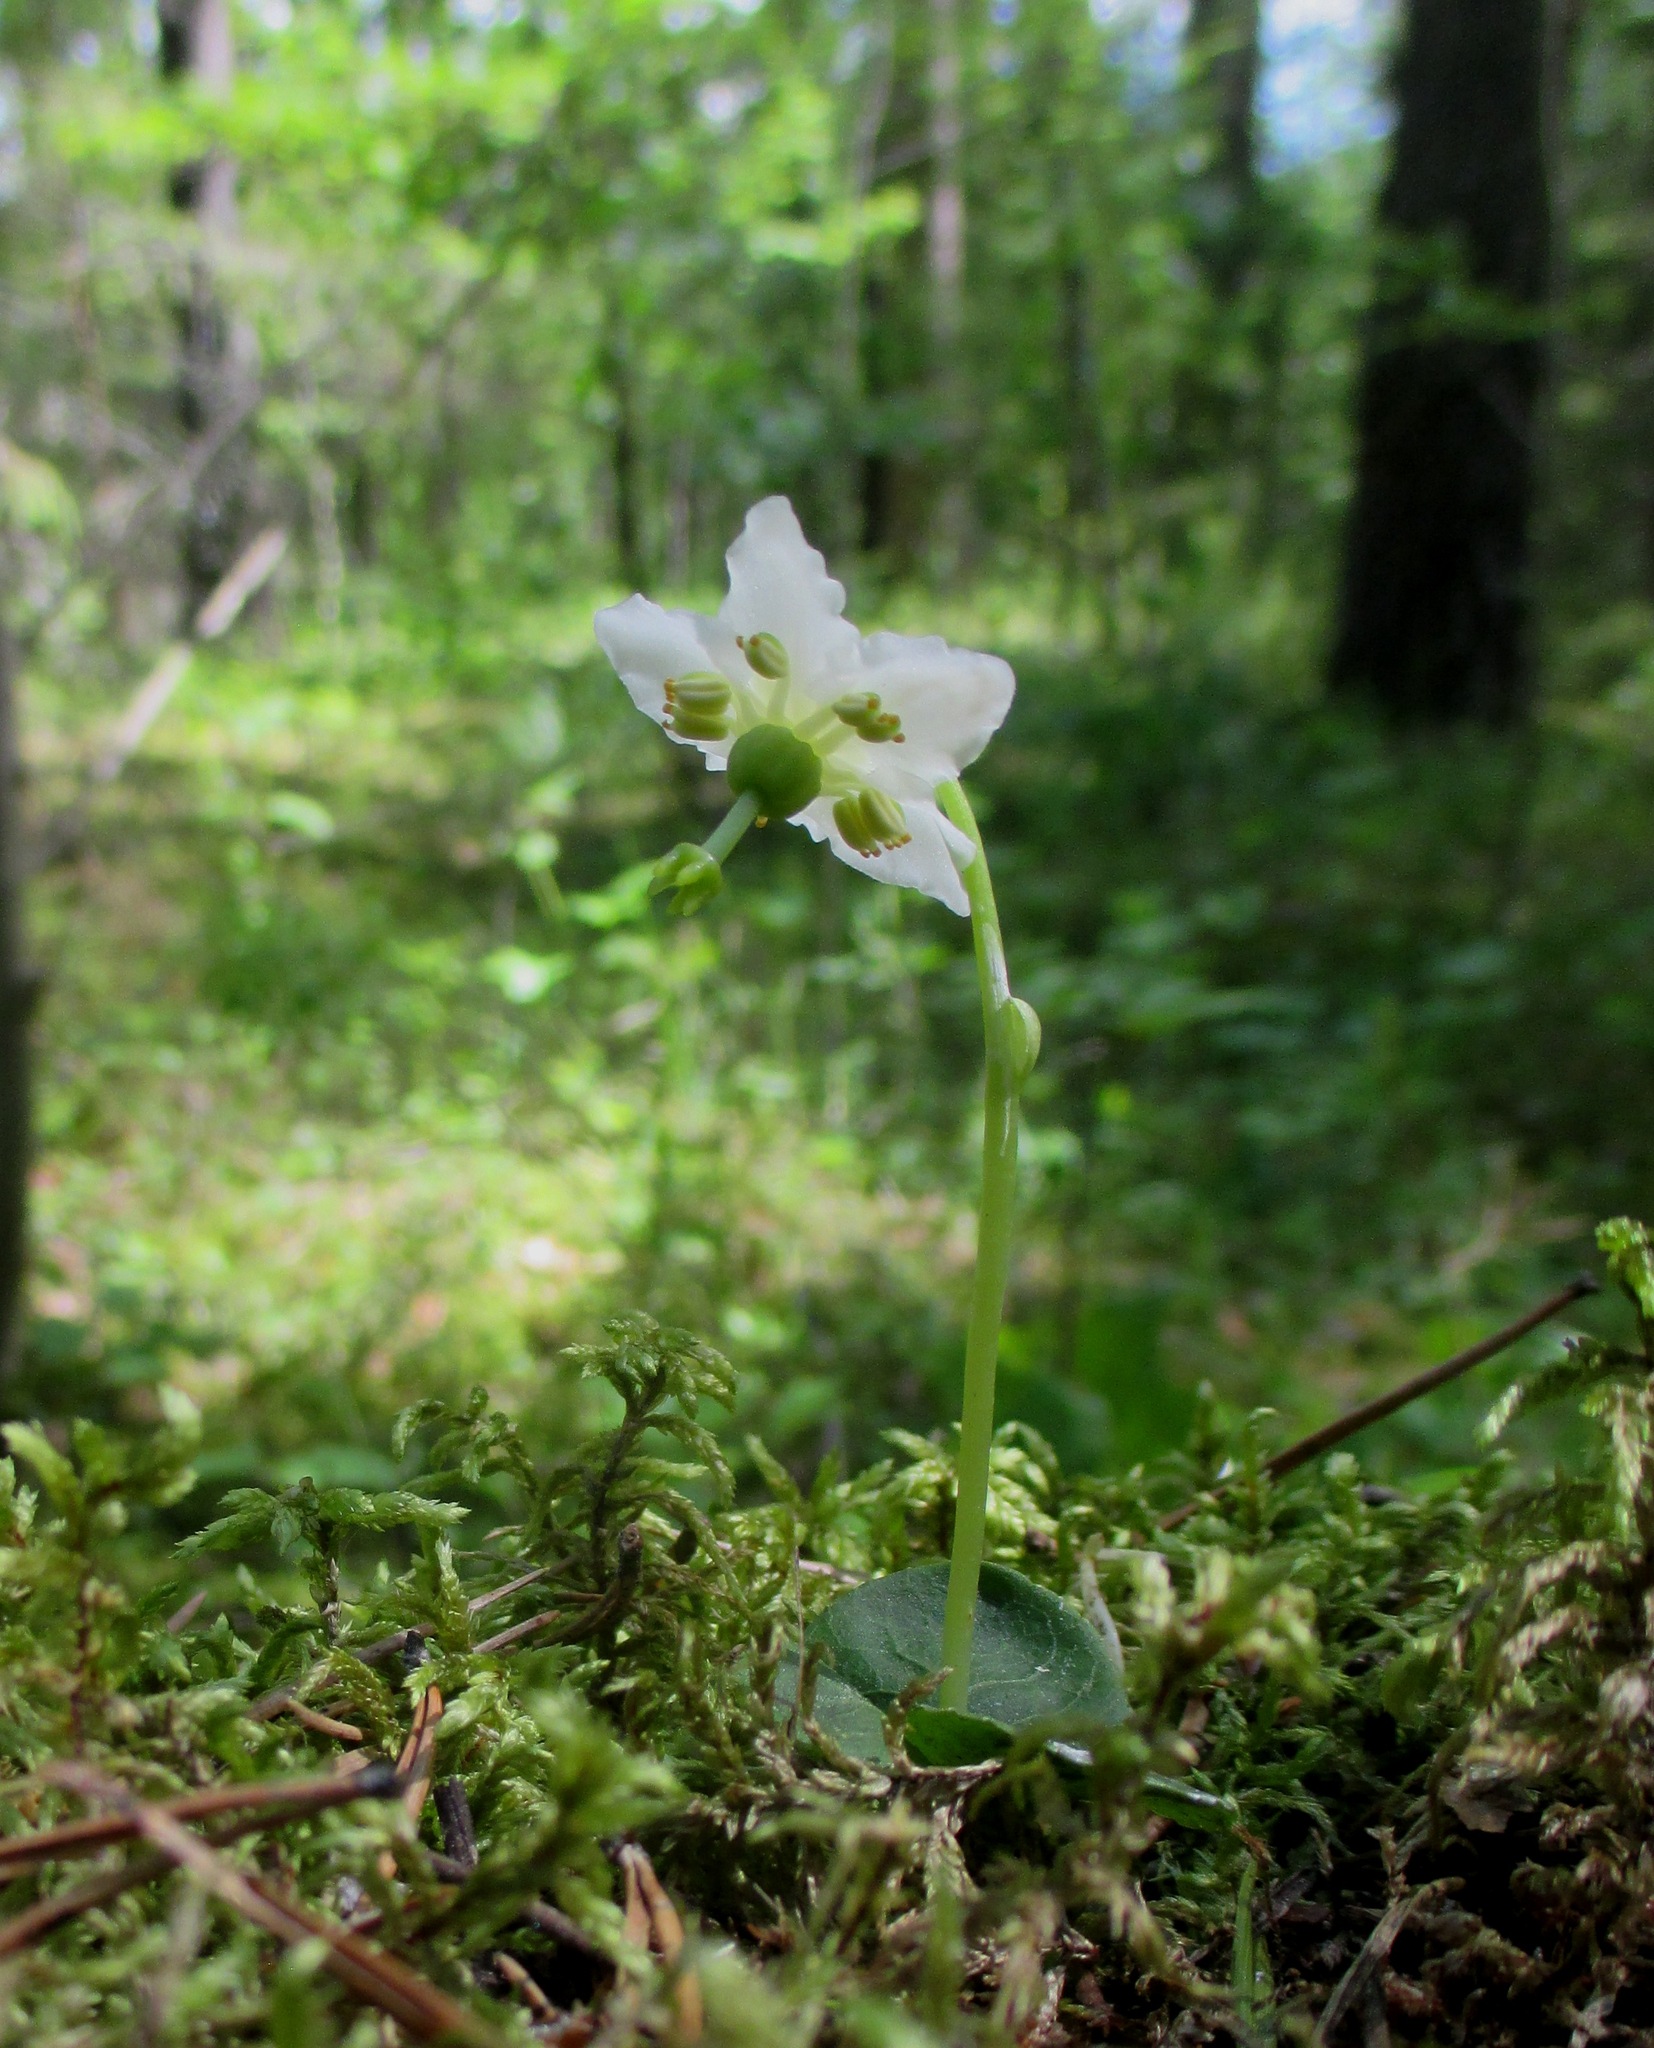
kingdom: Plantae
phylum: Tracheophyta
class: Magnoliopsida
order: Ericales
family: Ericaceae
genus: Moneses
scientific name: Moneses uniflora
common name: One-flowered wintergreen
